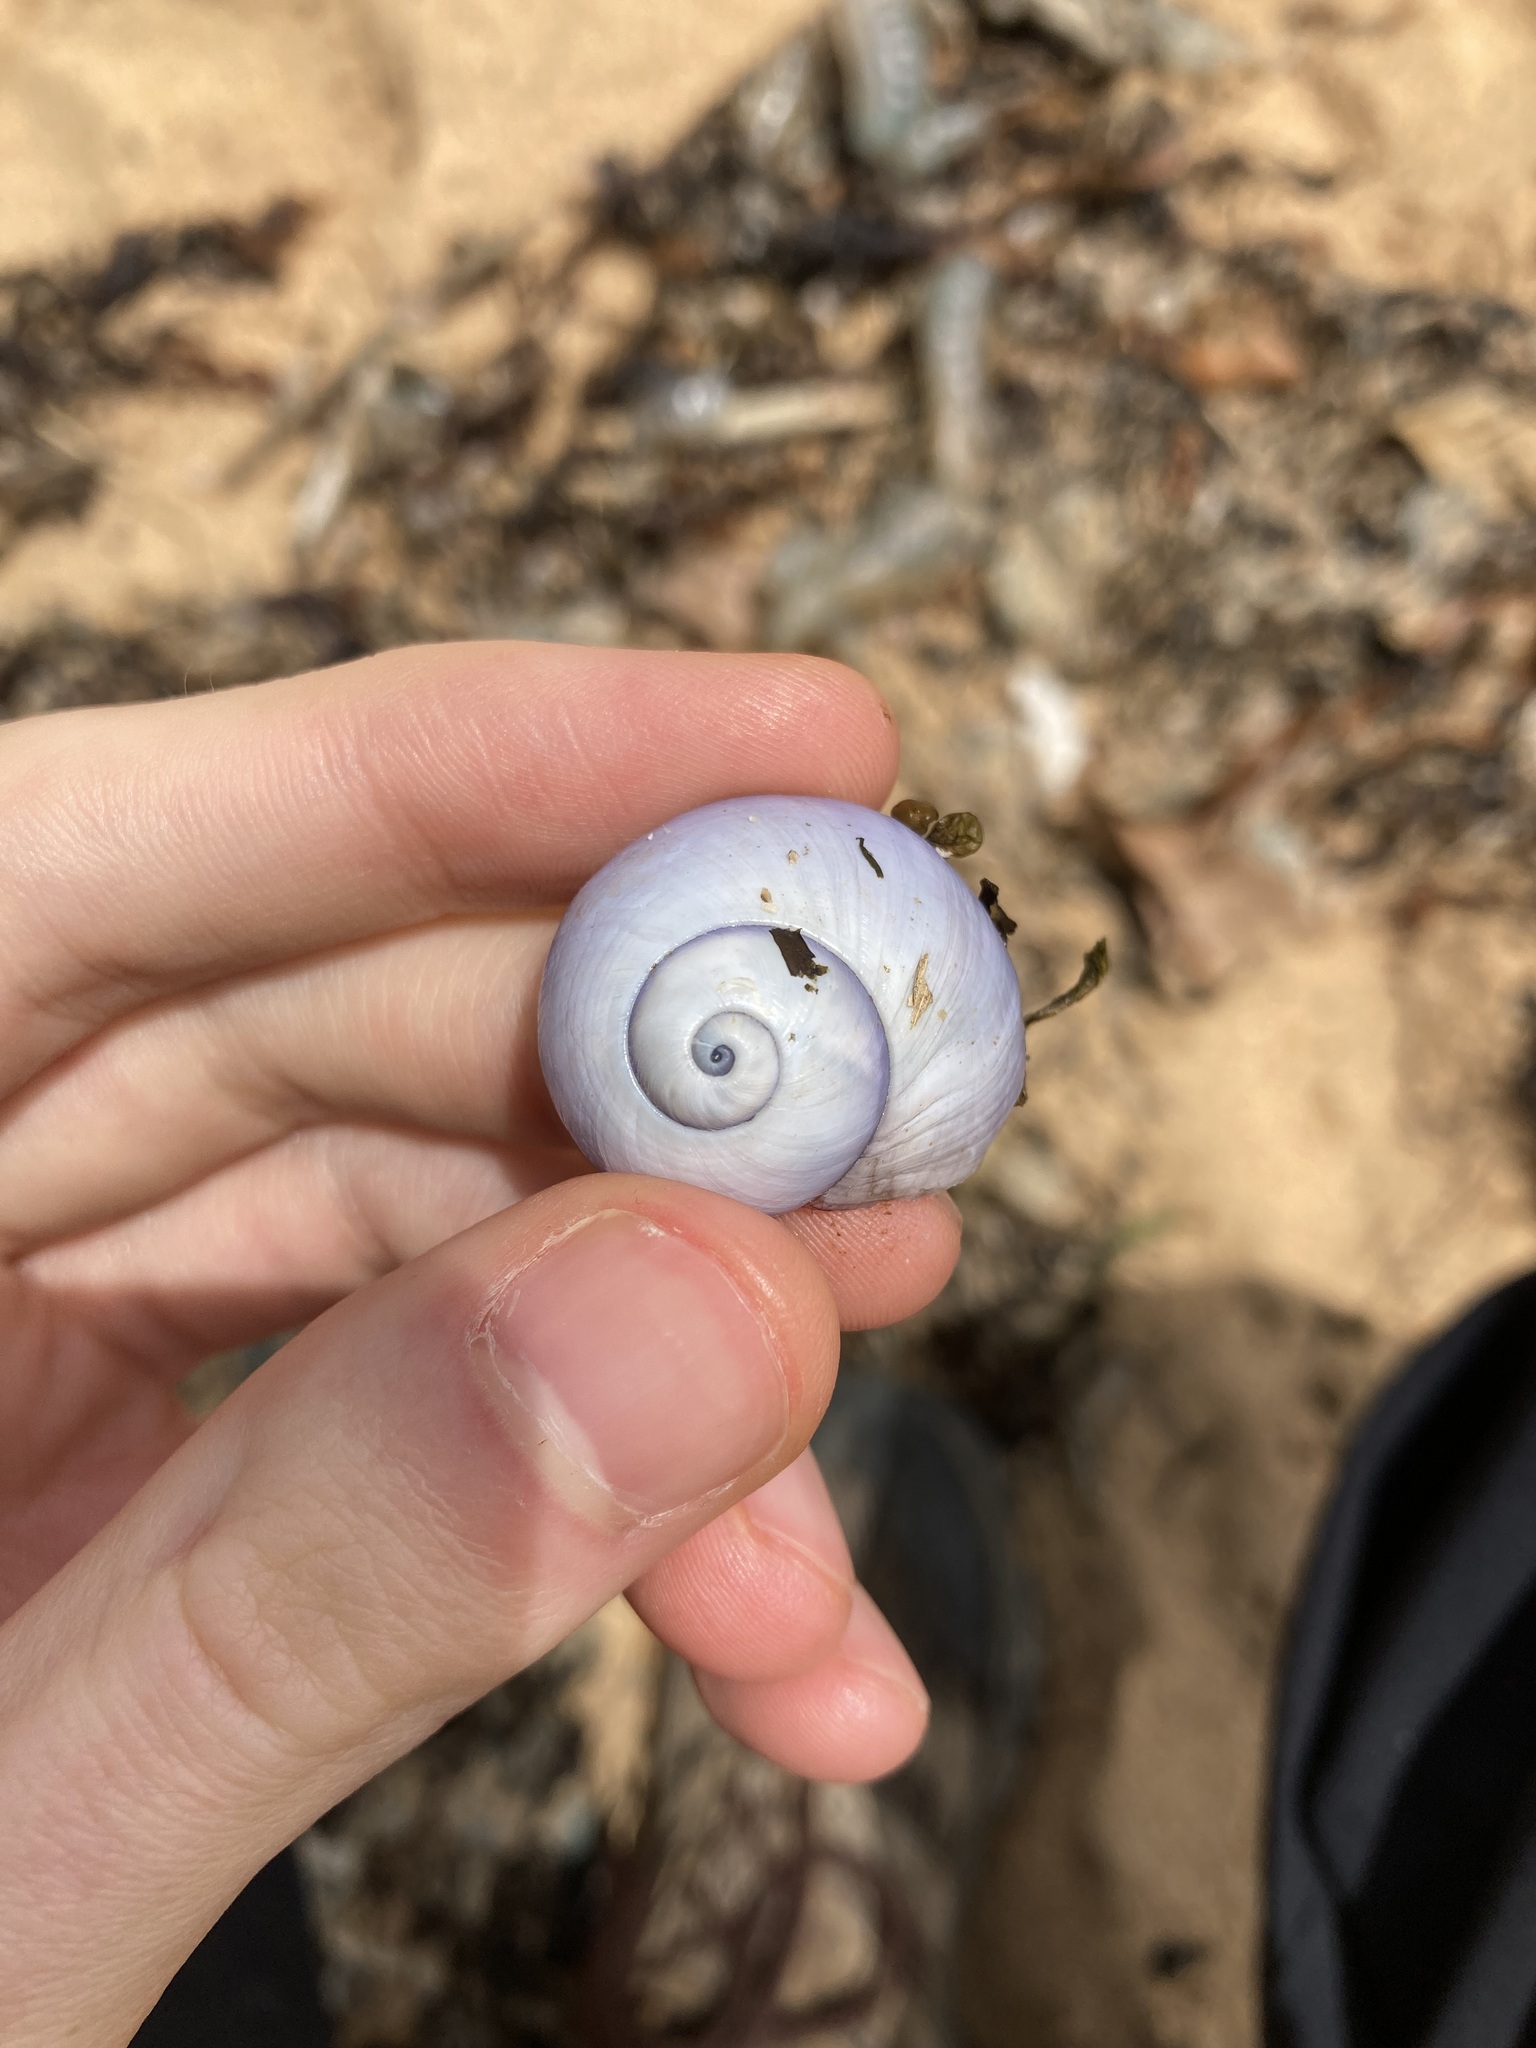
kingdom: Animalia
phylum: Mollusca
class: Gastropoda
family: Epitoniidae
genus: Janthina
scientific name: Janthina janthina
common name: Common janthina
